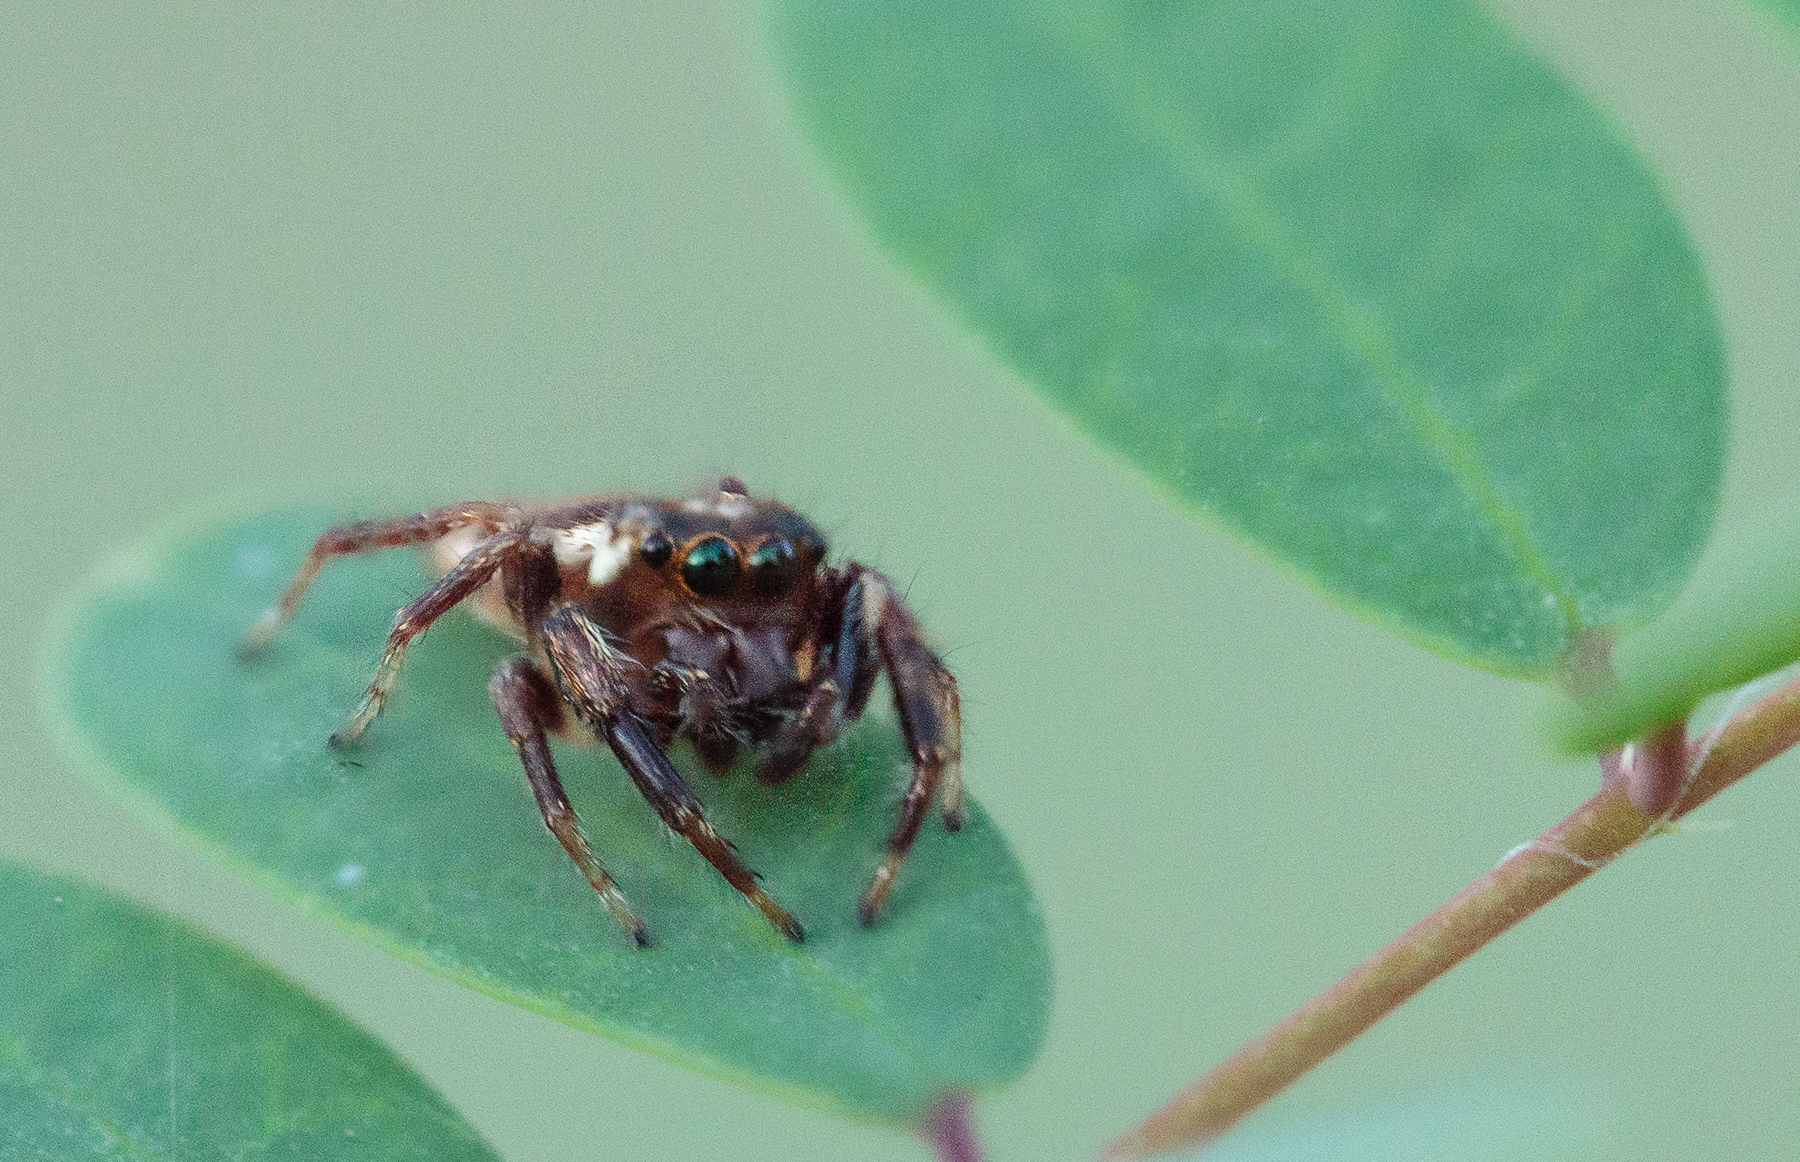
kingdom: Animalia
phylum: Arthropoda
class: Arachnida
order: Araneae
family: Salticidae
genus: Eris
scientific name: Eris militaris
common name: Bronze jumper
